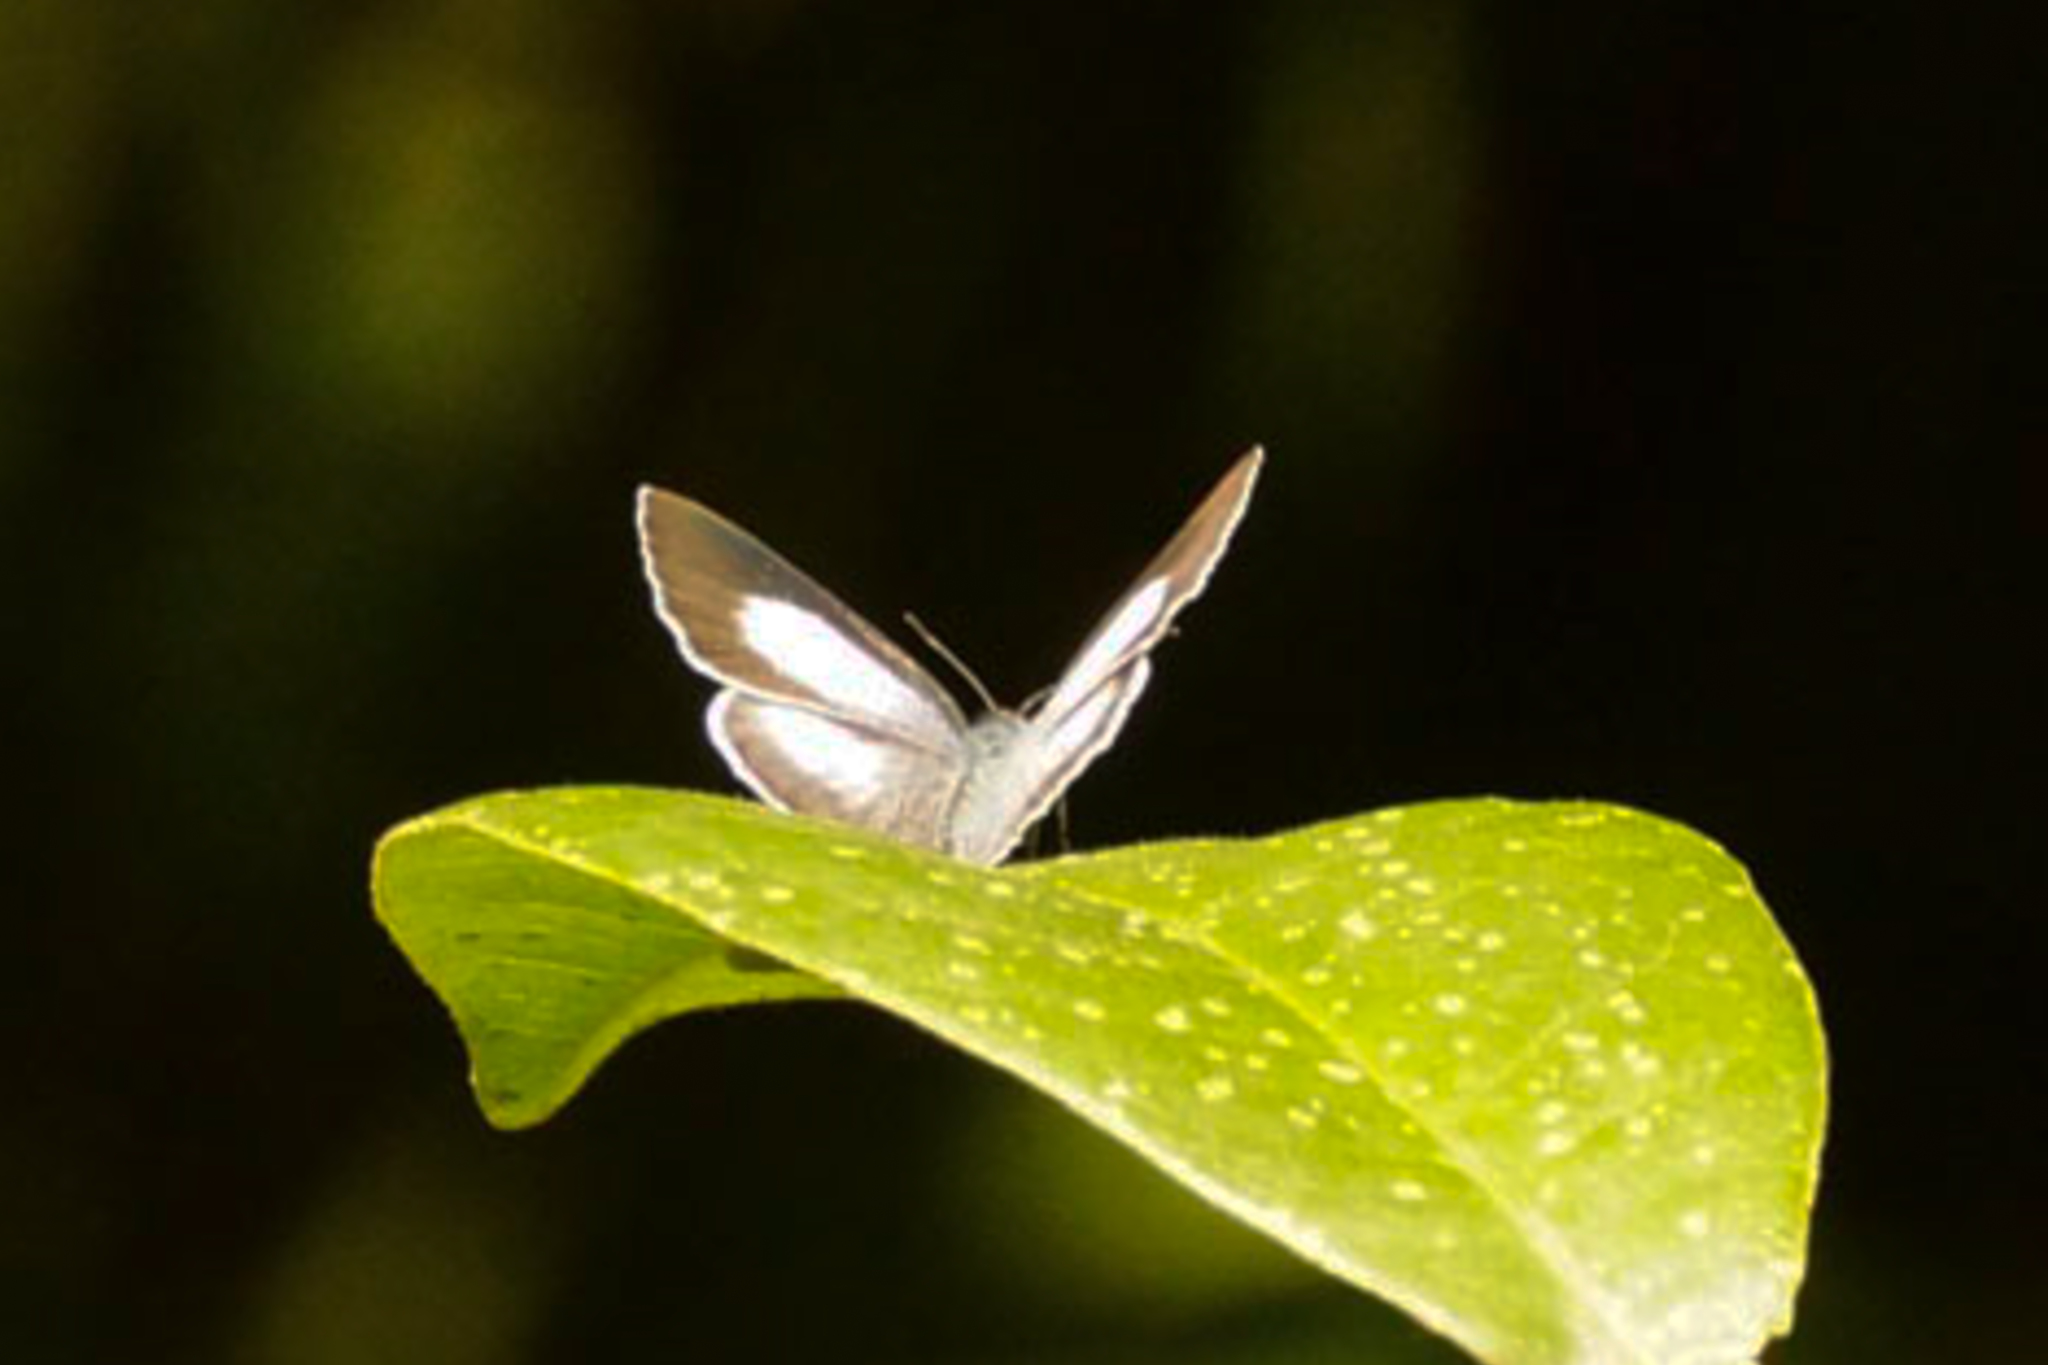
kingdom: Animalia
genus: Eirmocides
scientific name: Eirmocides
